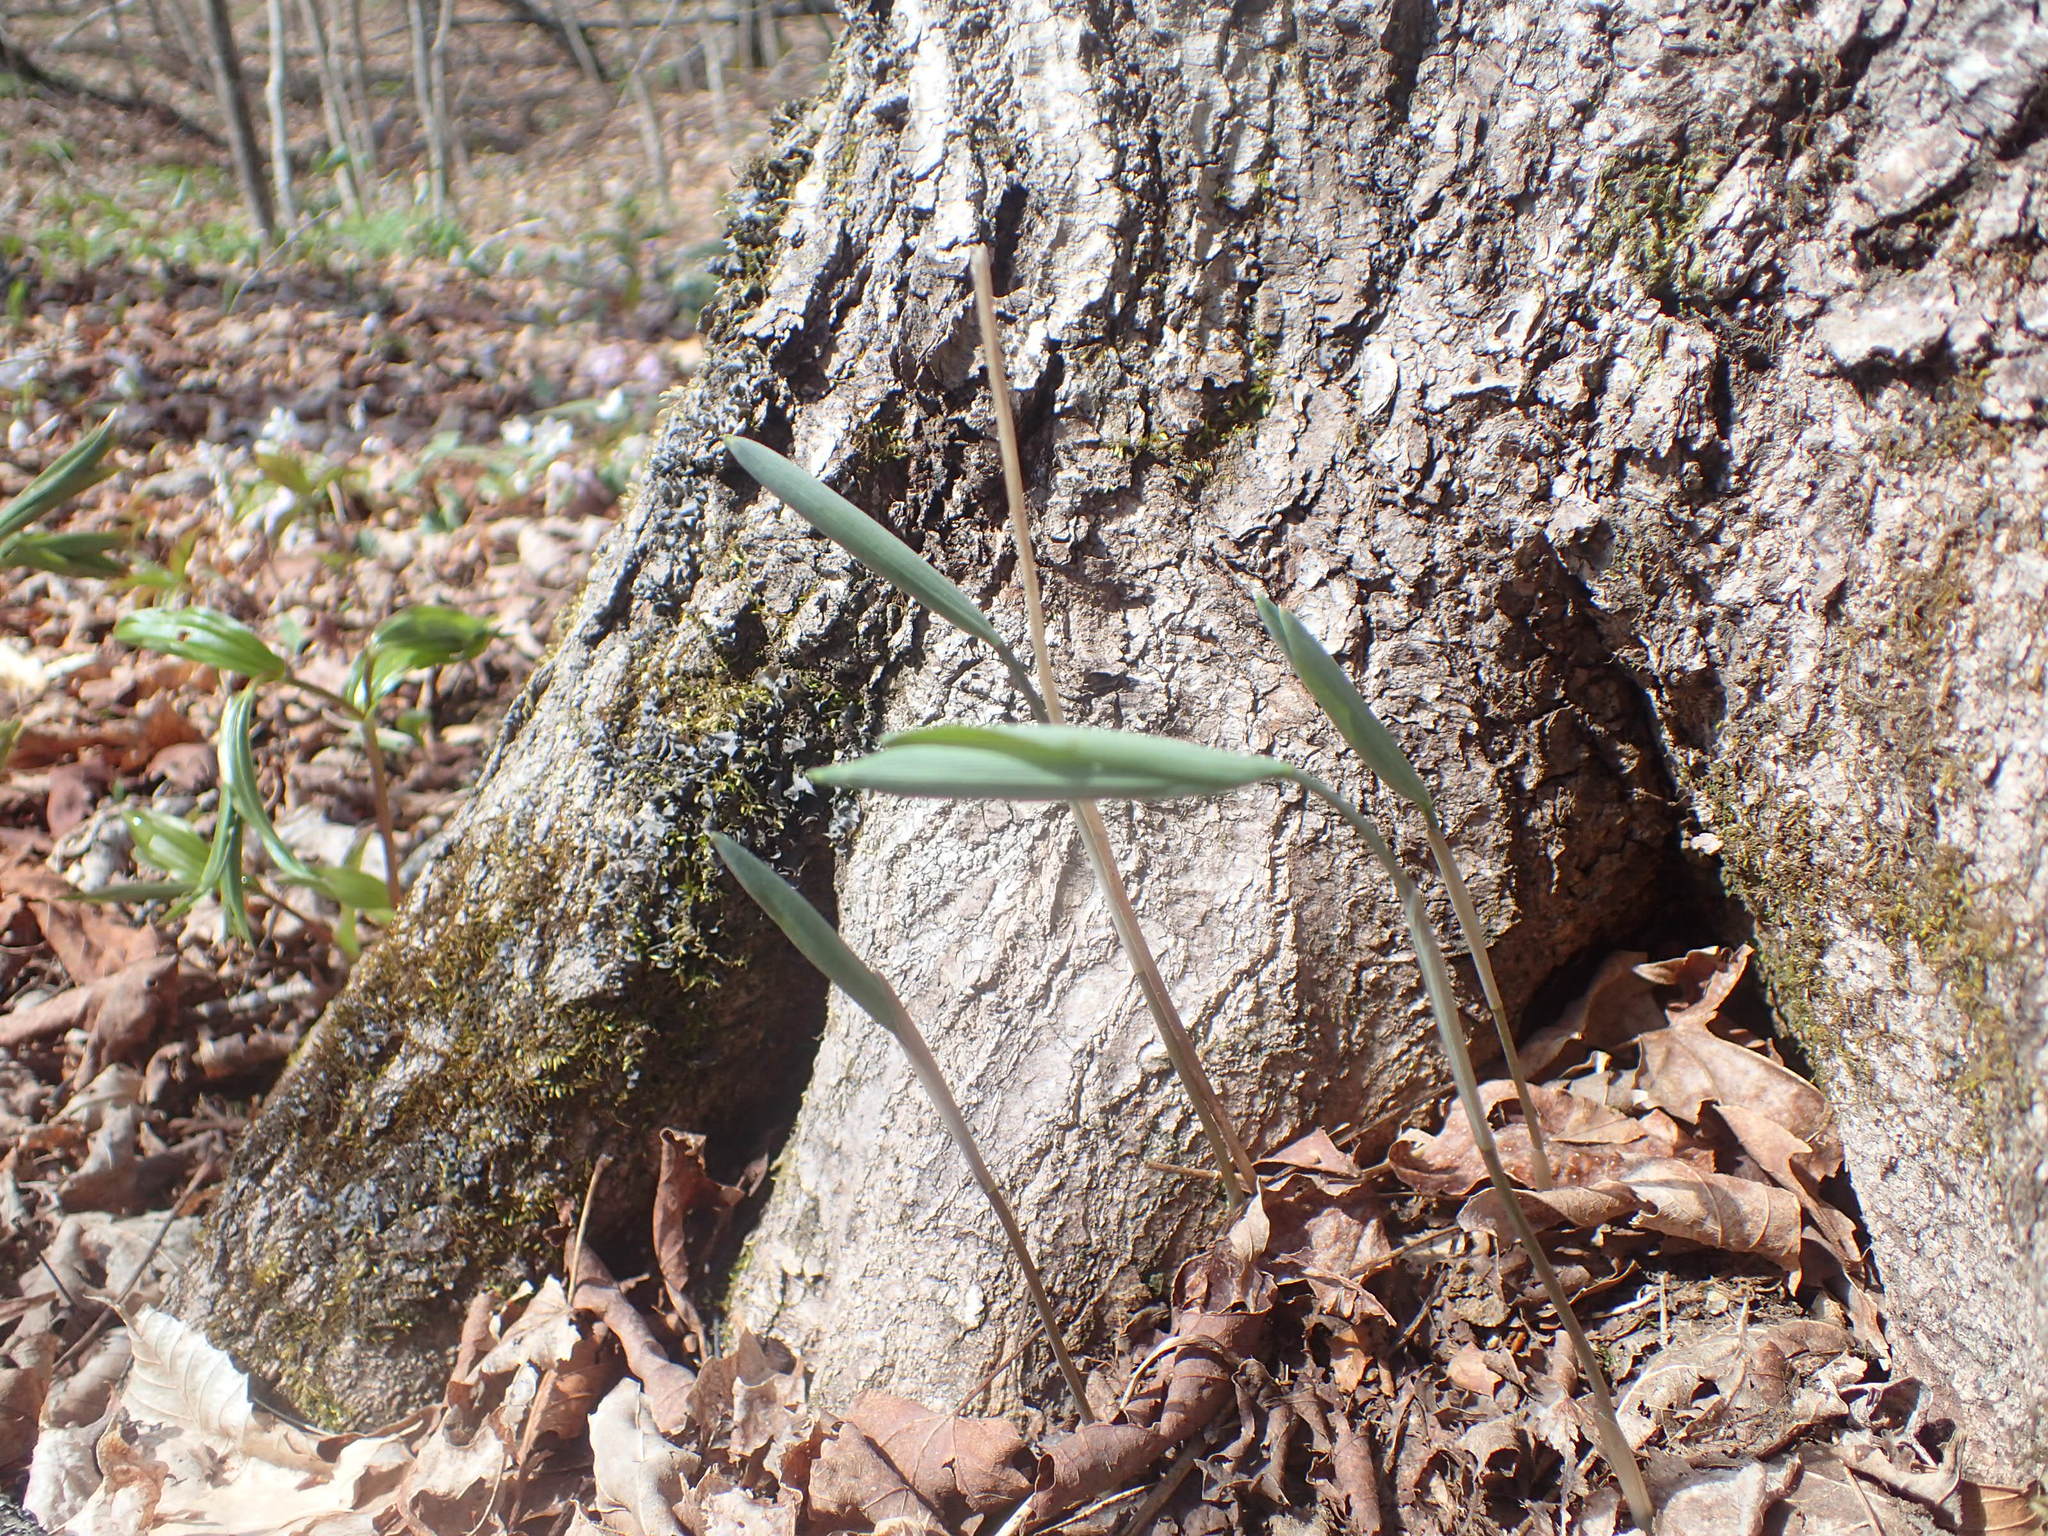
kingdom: Plantae
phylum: Tracheophyta
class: Liliopsida
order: Asparagales
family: Asparagaceae
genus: Polygonatum
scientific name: Polygonatum pubescens
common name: Downy solomon's seal
